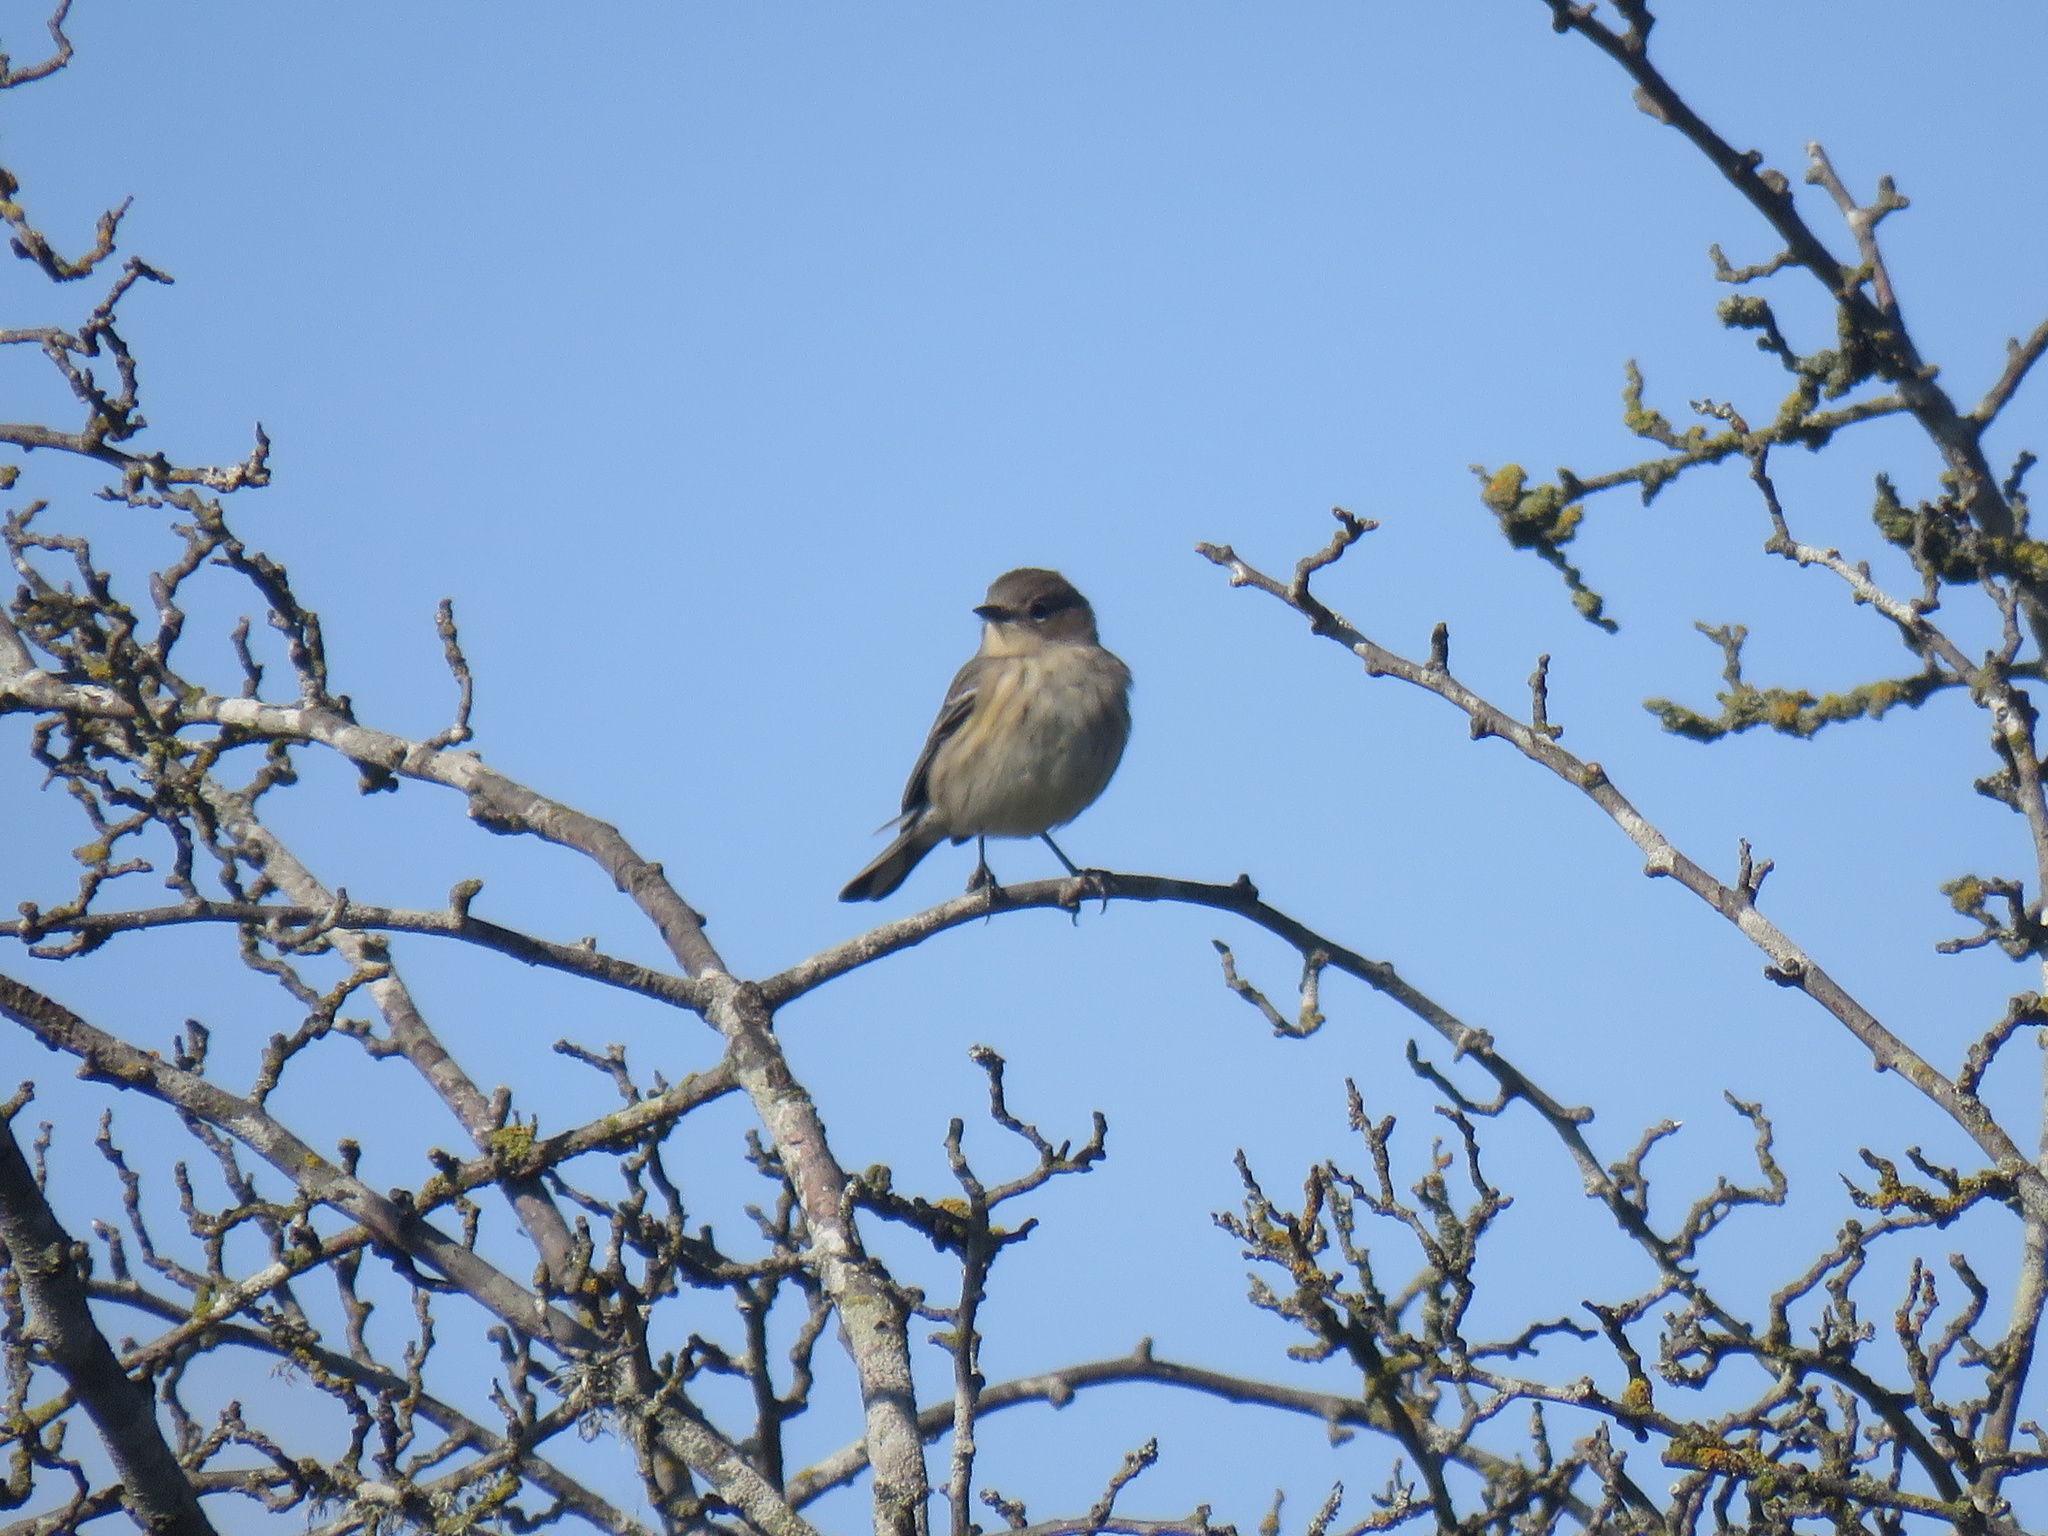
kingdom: Animalia
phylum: Chordata
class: Aves
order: Passeriformes
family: Parulidae
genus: Setophaga
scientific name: Setophaga coronata
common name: Myrtle warbler
